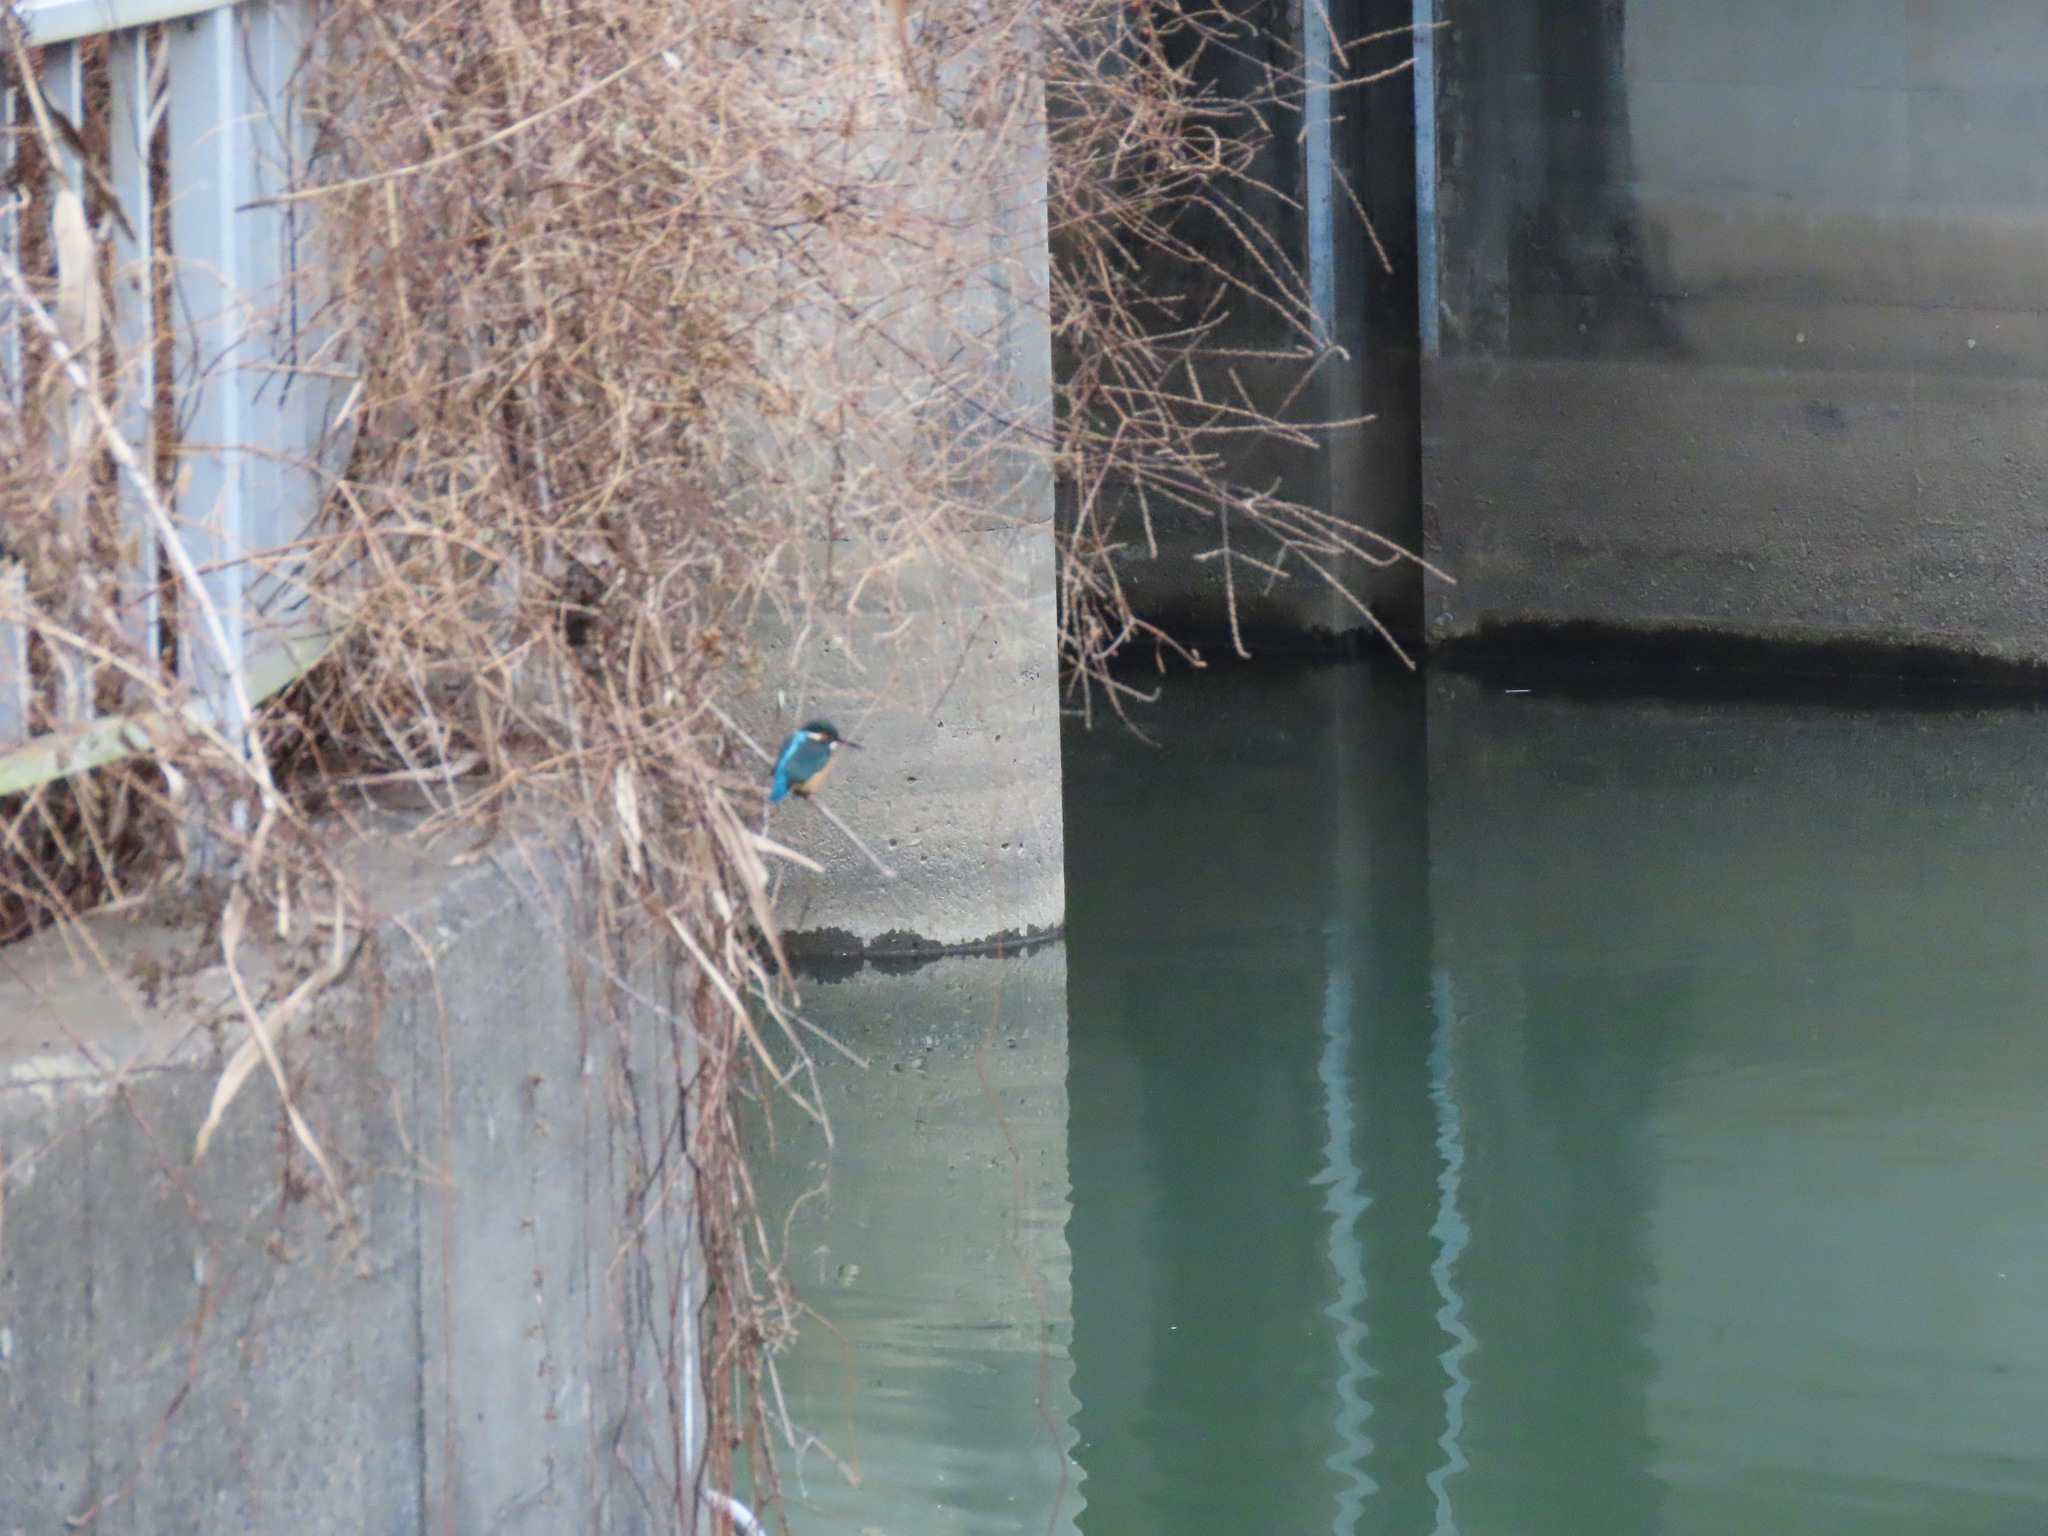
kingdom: Animalia
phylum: Chordata
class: Aves
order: Coraciiformes
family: Alcedinidae
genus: Alcedo
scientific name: Alcedo atthis
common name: Common kingfisher
